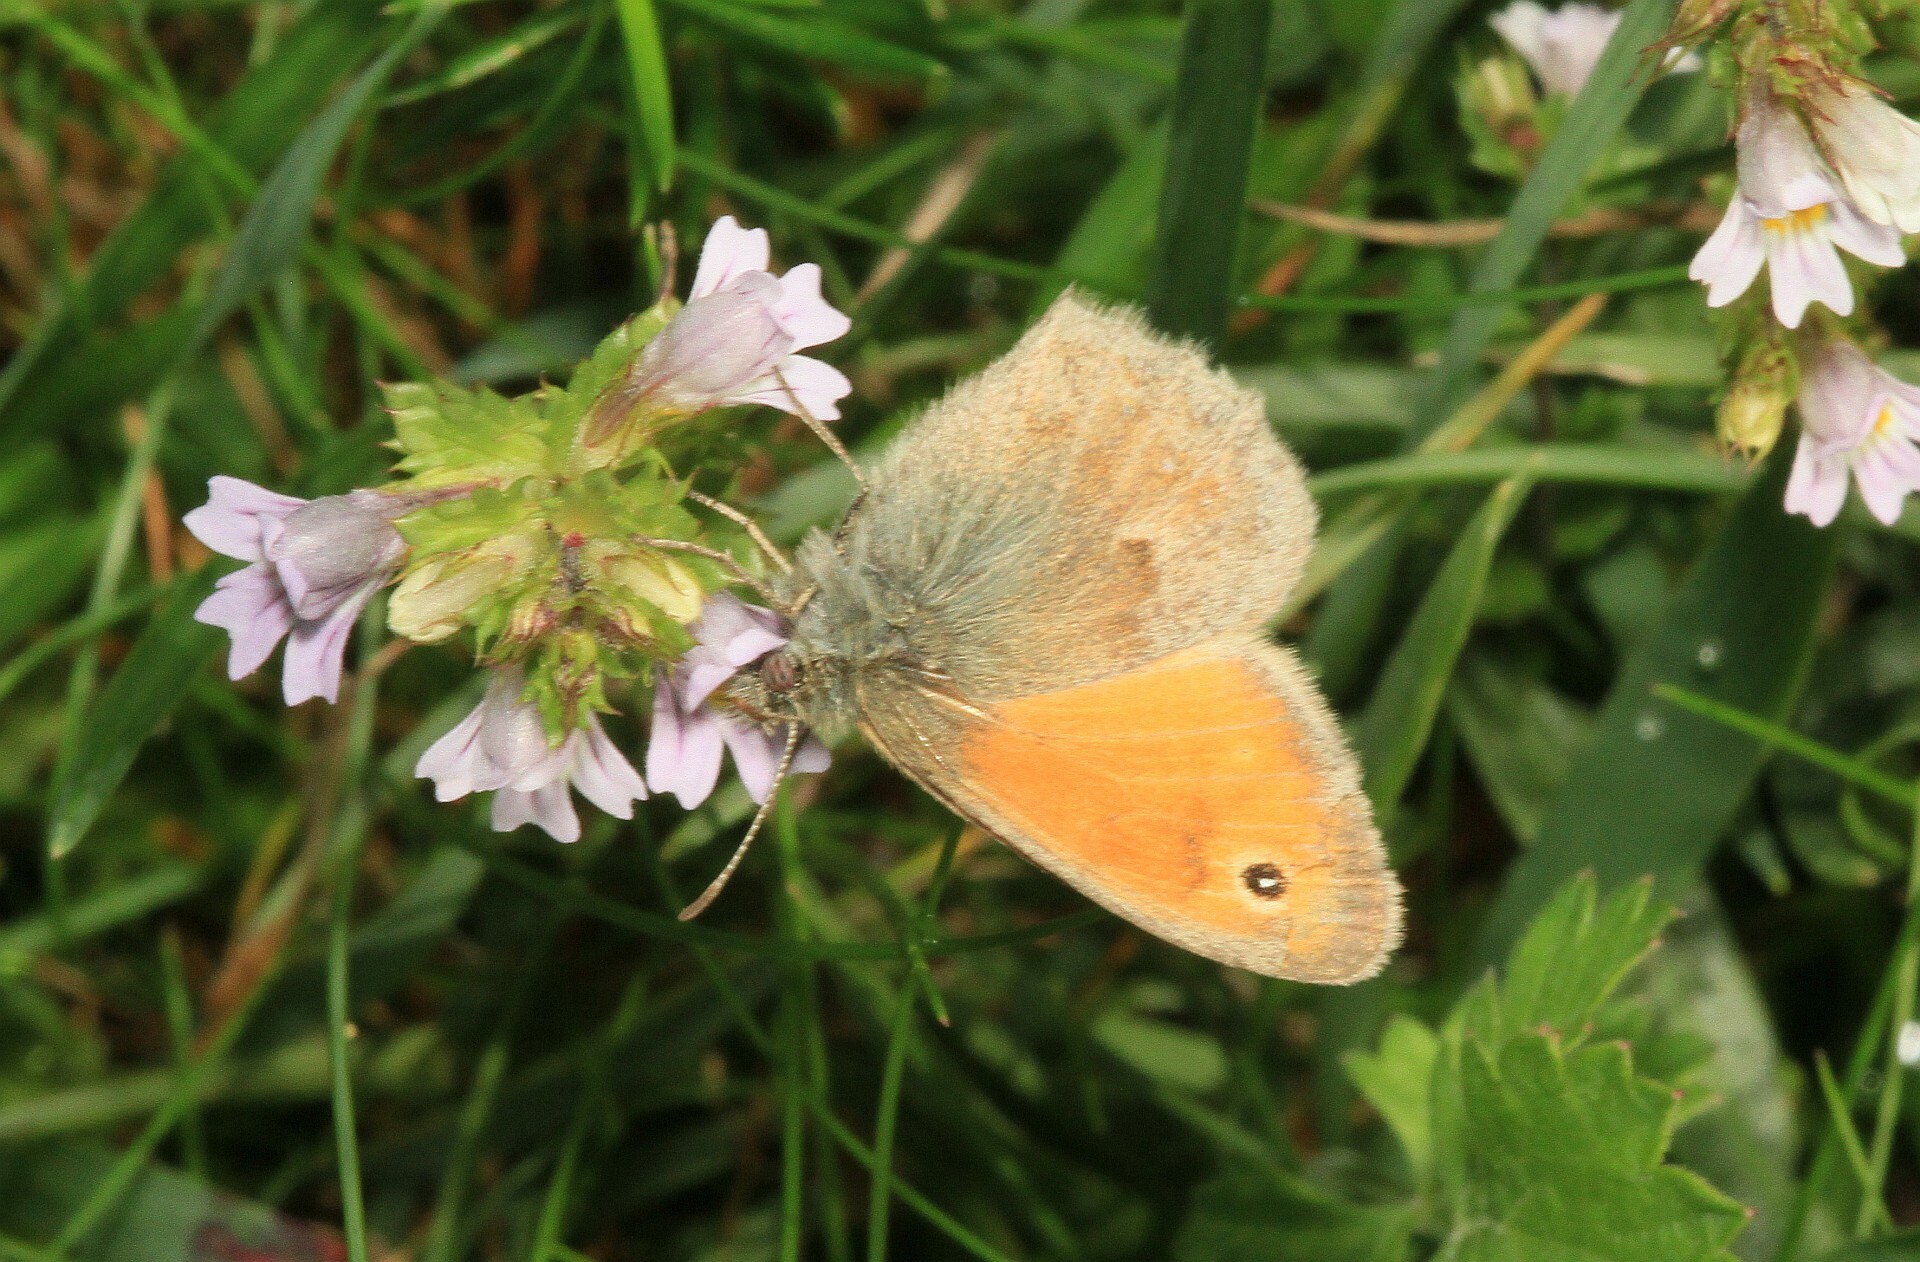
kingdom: Animalia
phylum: Arthropoda
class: Insecta
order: Lepidoptera
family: Nymphalidae
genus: Coenonympha
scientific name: Coenonympha pamphilus
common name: Small heath
